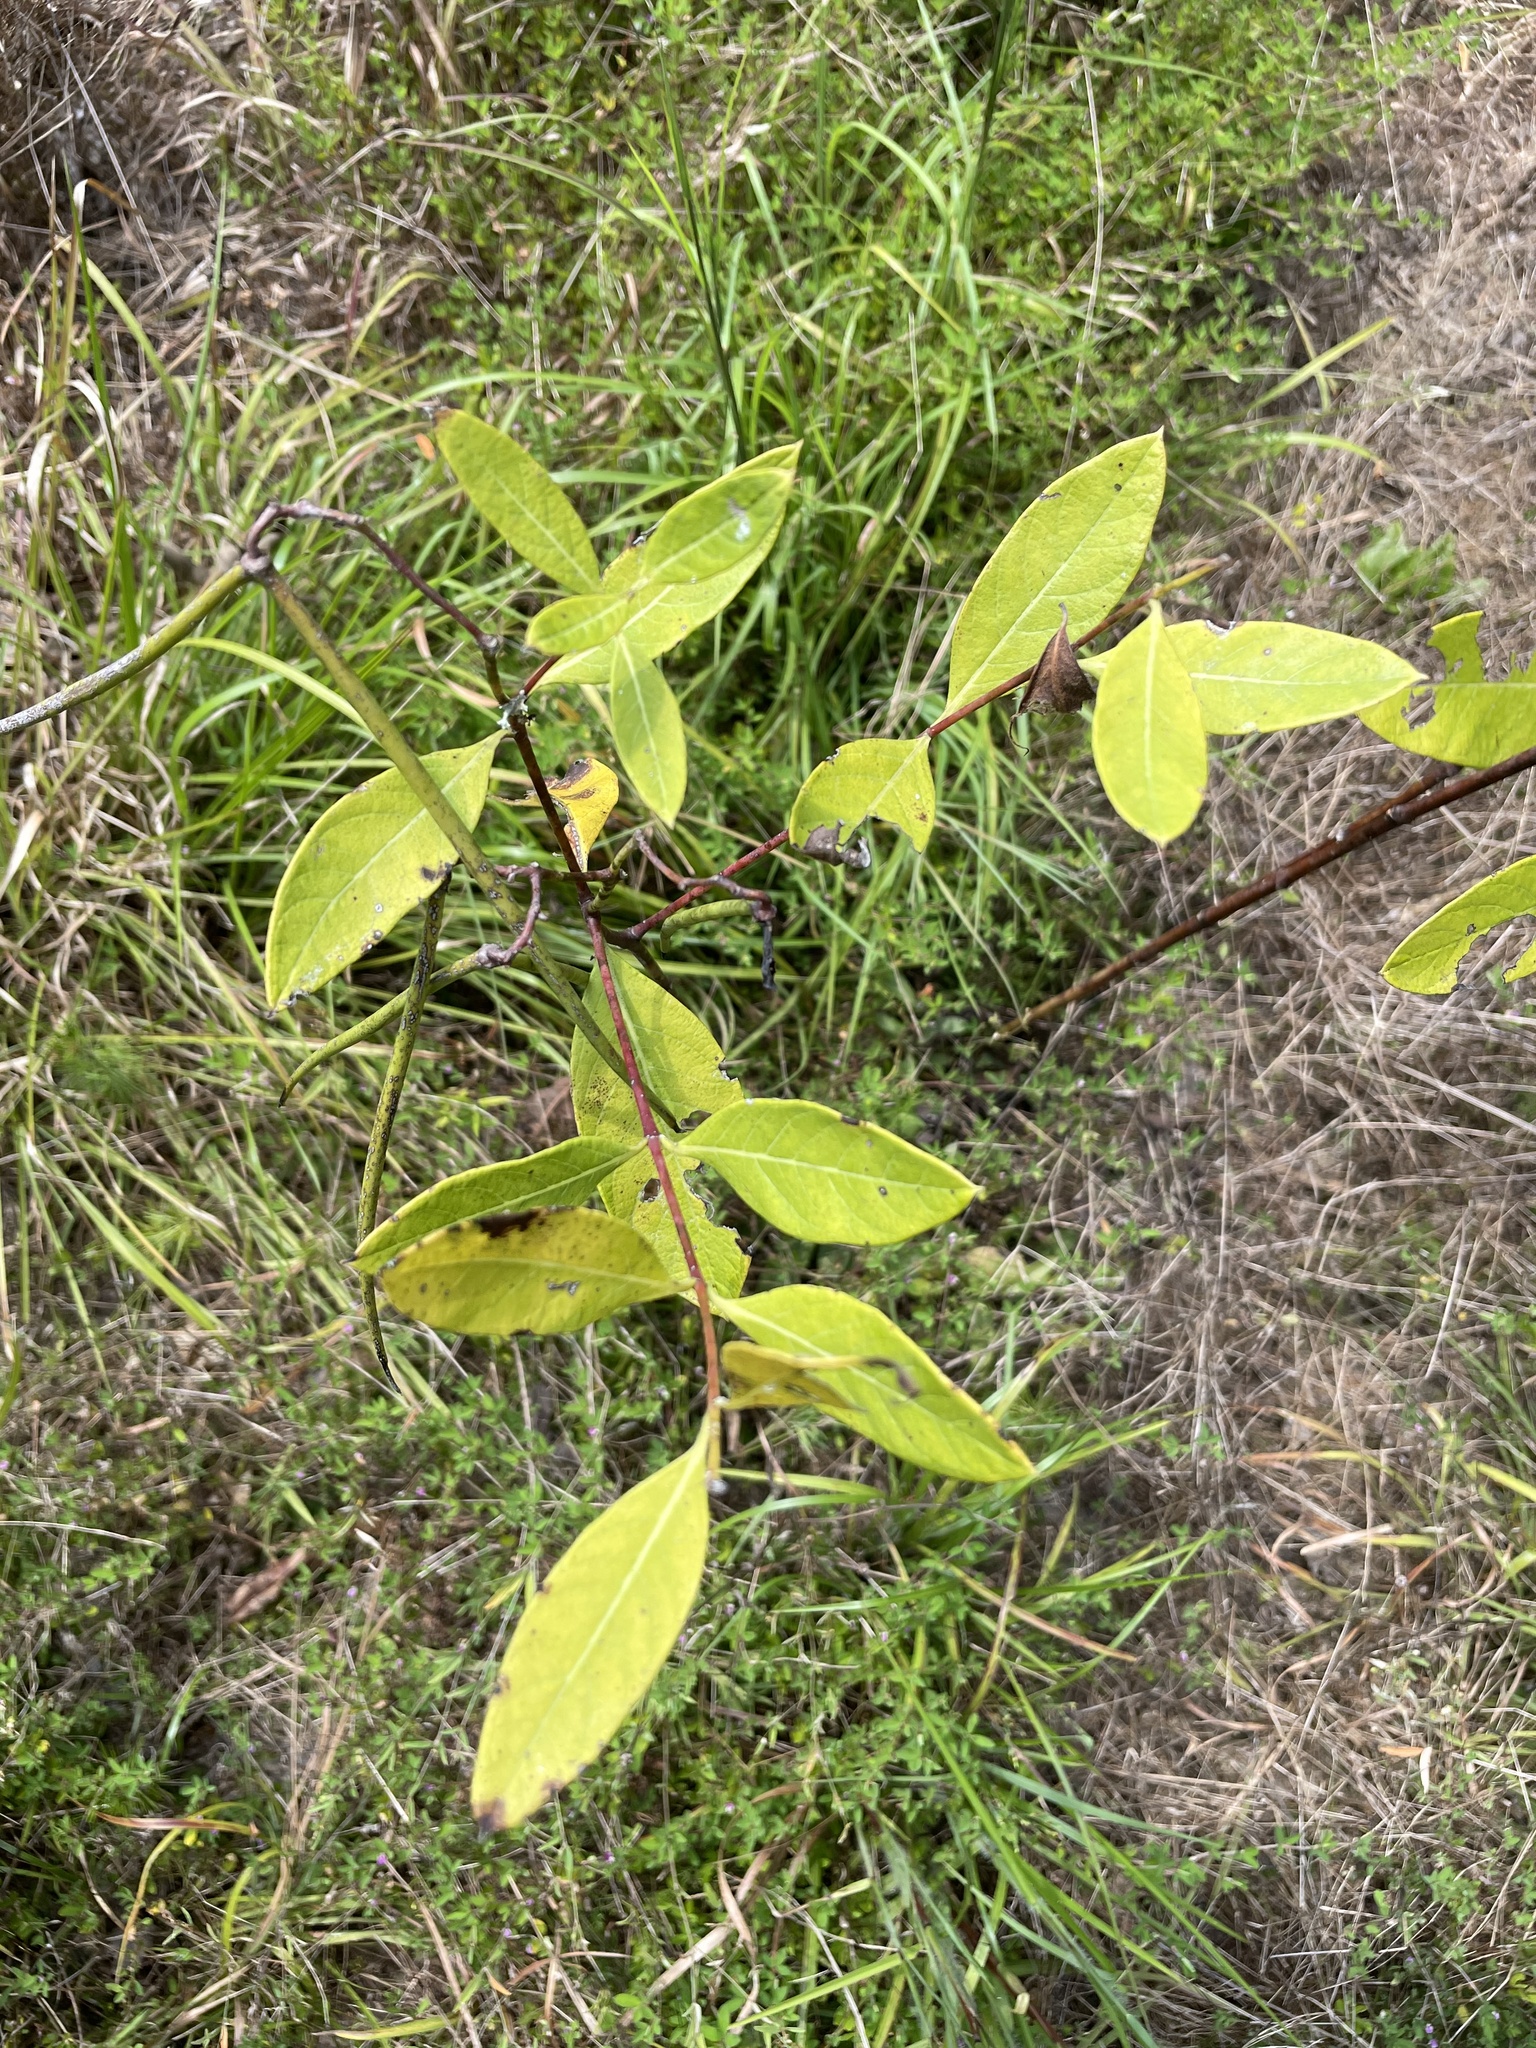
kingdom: Plantae
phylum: Tracheophyta
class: Magnoliopsida
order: Gentianales
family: Apocynaceae
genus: Apocynum
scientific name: Apocynum cannabinum
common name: Hemp dogbane
